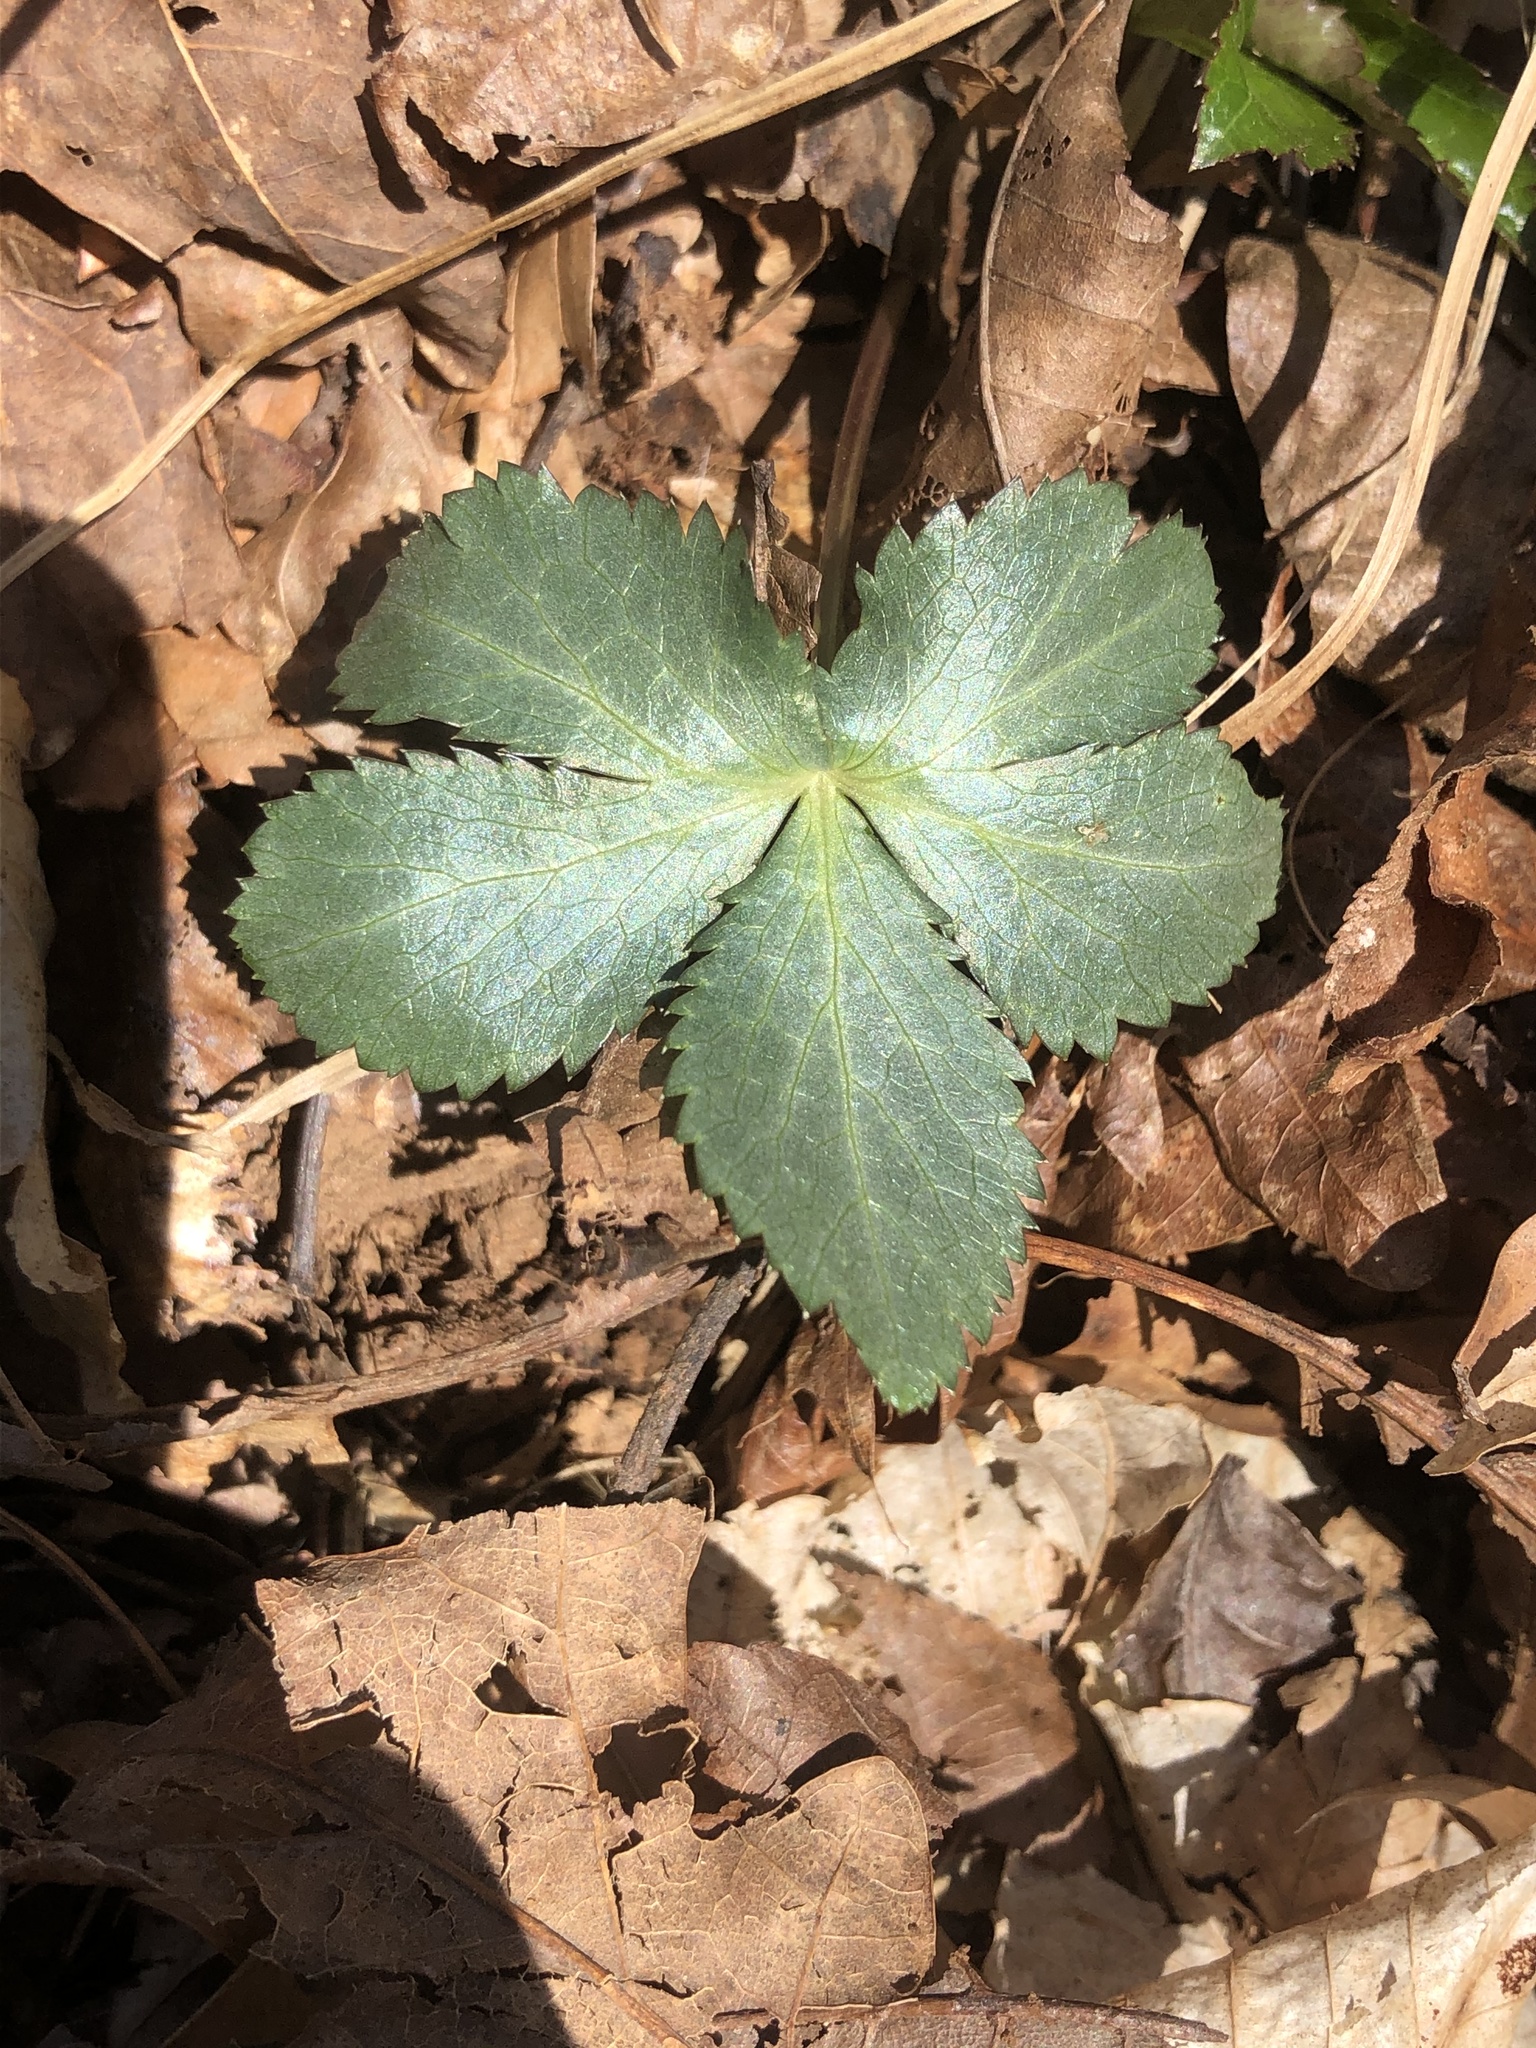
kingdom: Plantae
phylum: Tracheophyta
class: Magnoliopsida
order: Apiales
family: Apiaceae
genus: Sanicula
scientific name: Sanicula smallii
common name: Small's black snakeroot
